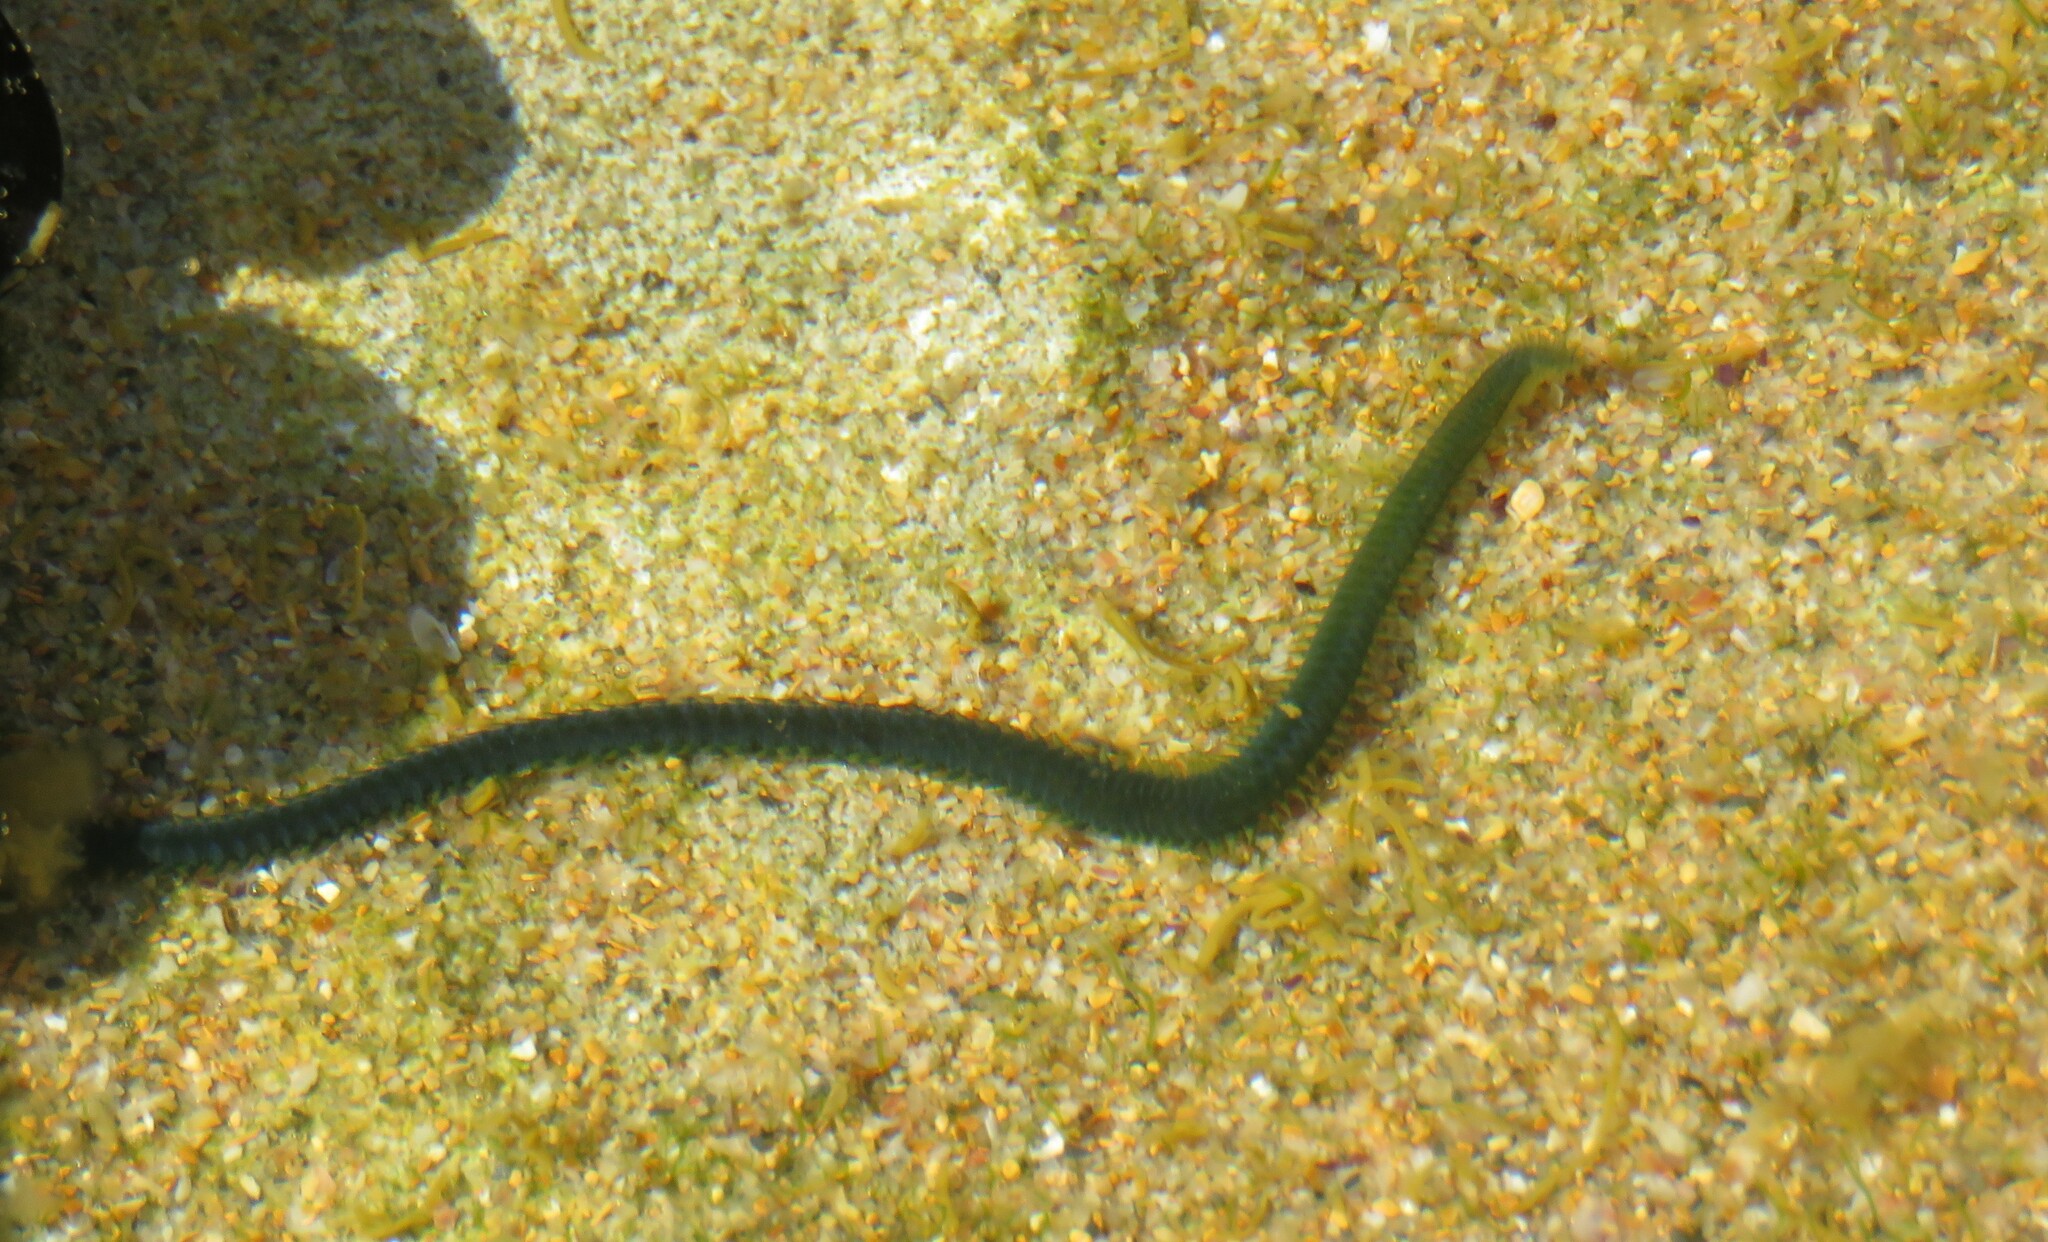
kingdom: Animalia
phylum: Annelida
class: Polychaeta
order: Phyllodocida
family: Phyllodocidae
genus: Eulalia
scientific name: Eulalia clavigera
